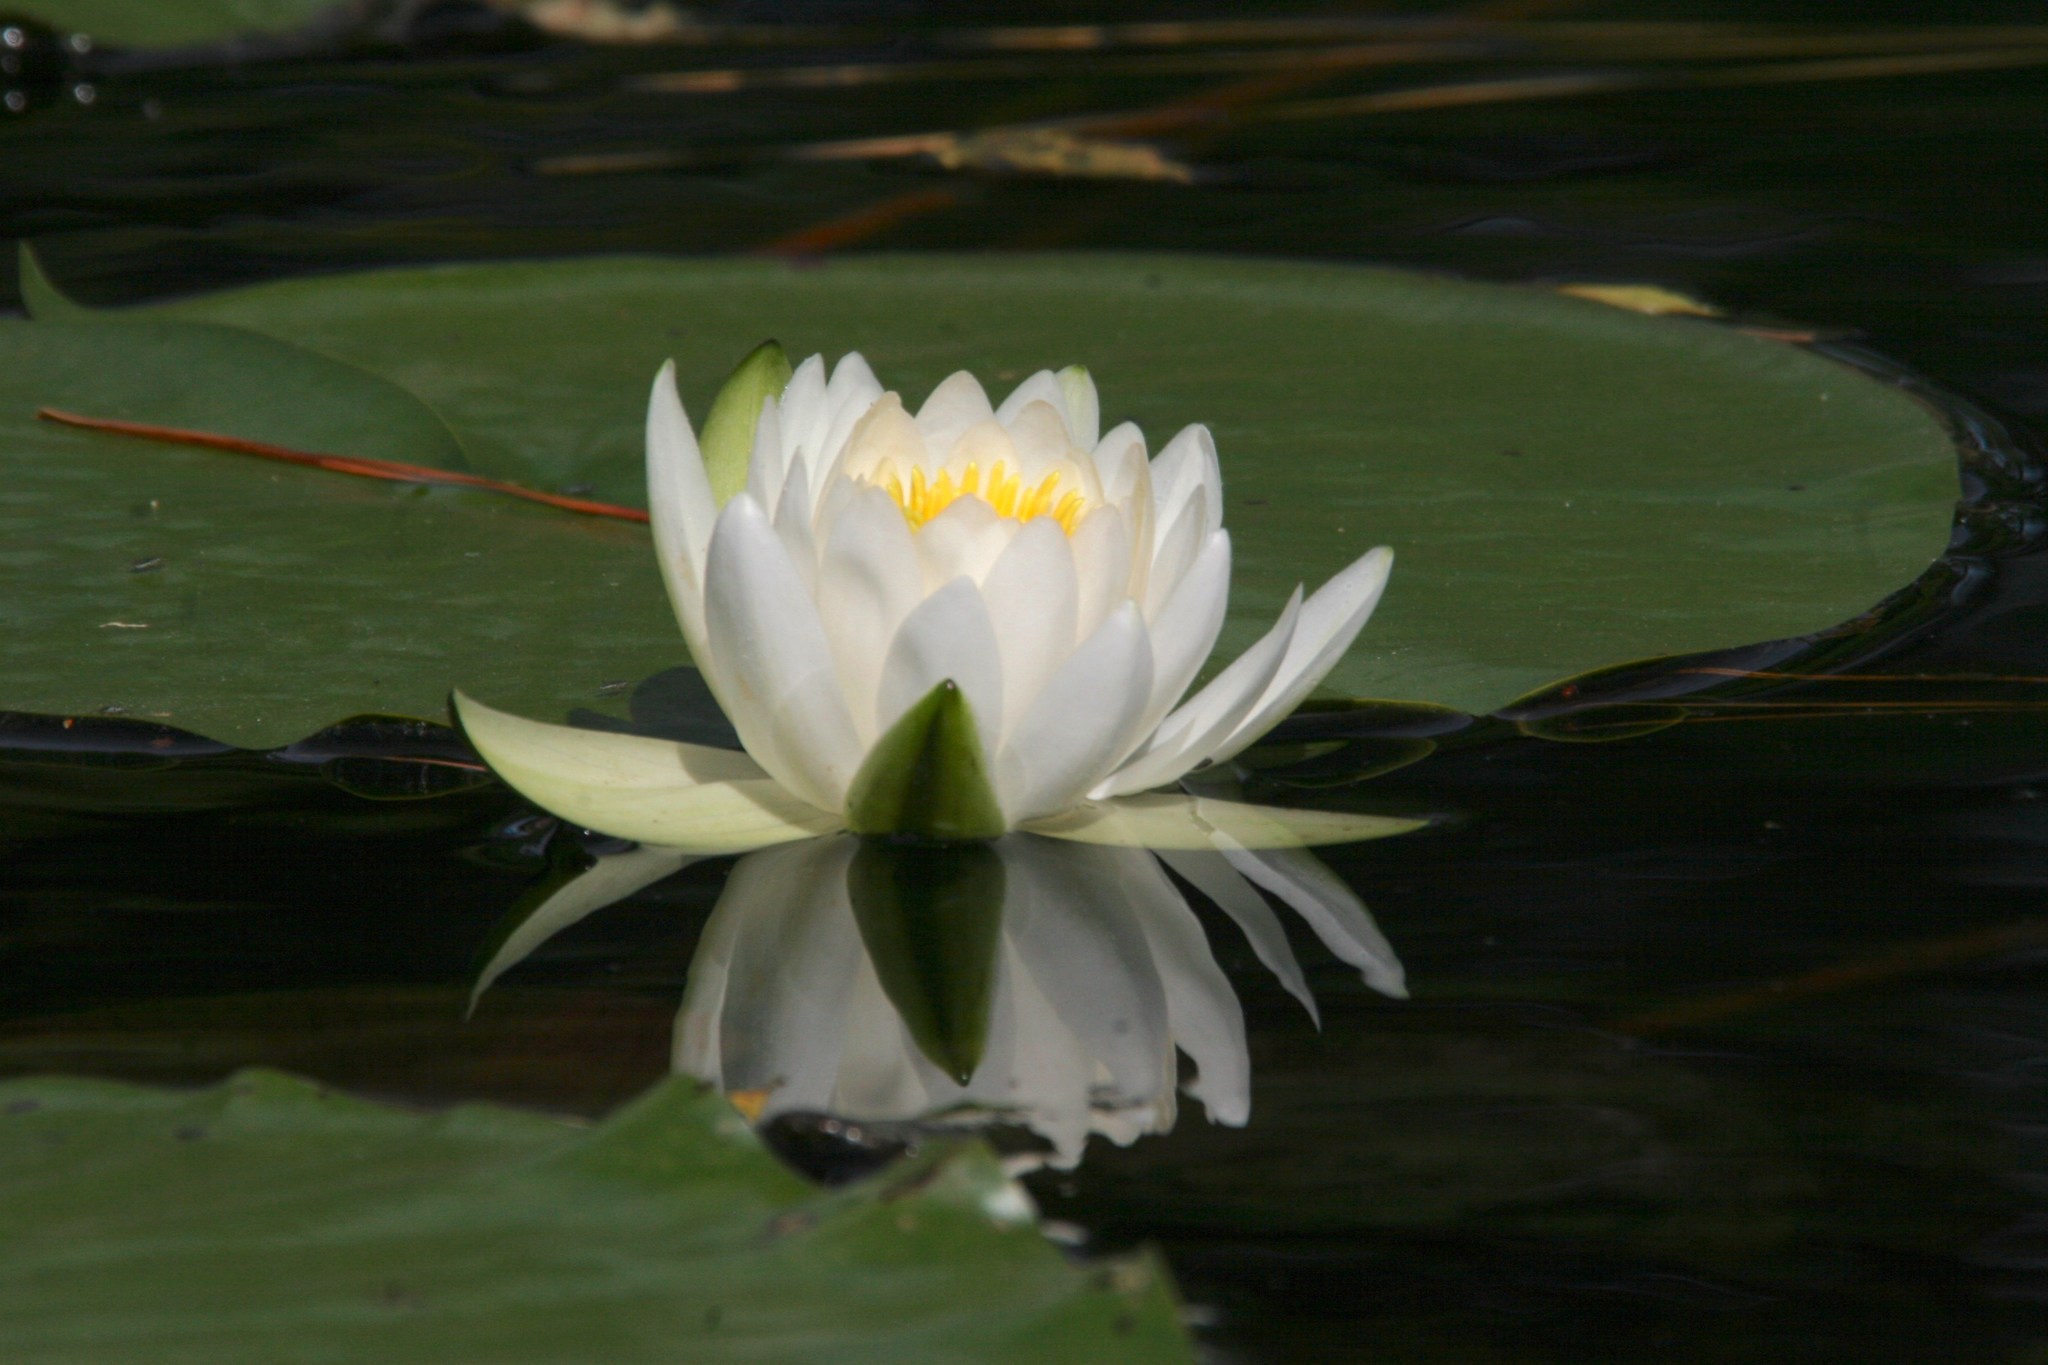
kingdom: Plantae
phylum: Tracheophyta
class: Magnoliopsida
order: Nymphaeales
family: Nymphaeaceae
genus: Nymphaea
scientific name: Nymphaea odorata
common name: Fragrant water-lily
